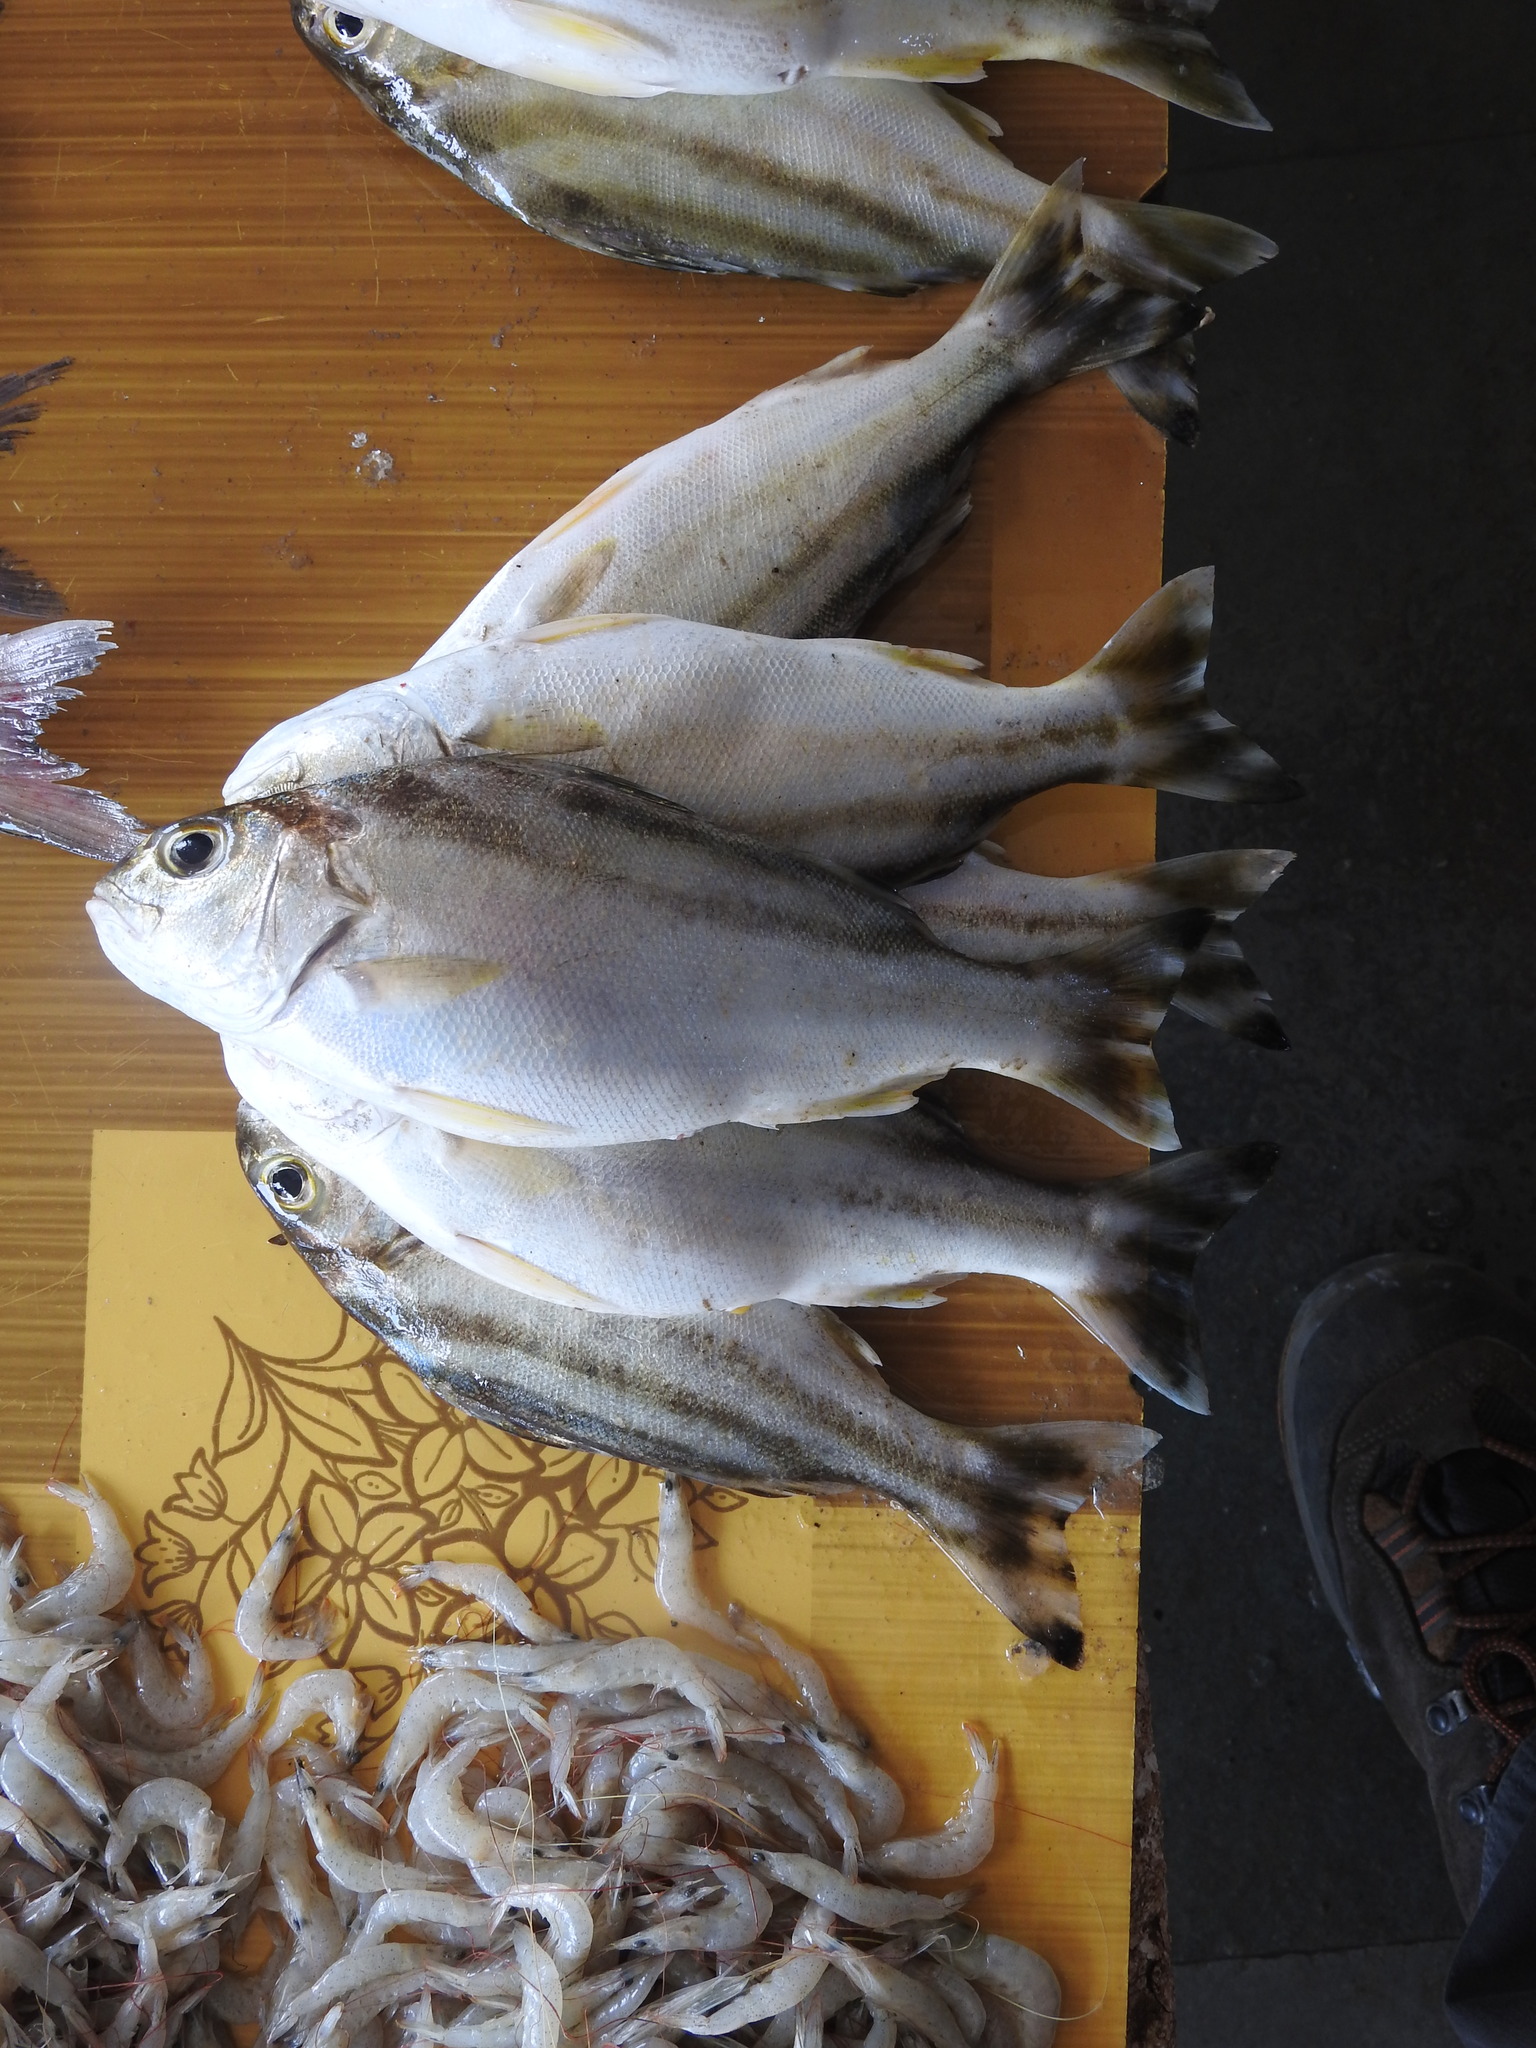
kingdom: Animalia
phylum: Chordata
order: Perciformes
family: Terapontidae
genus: Terapon
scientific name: Terapon jarbua
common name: Jarbua terapon
